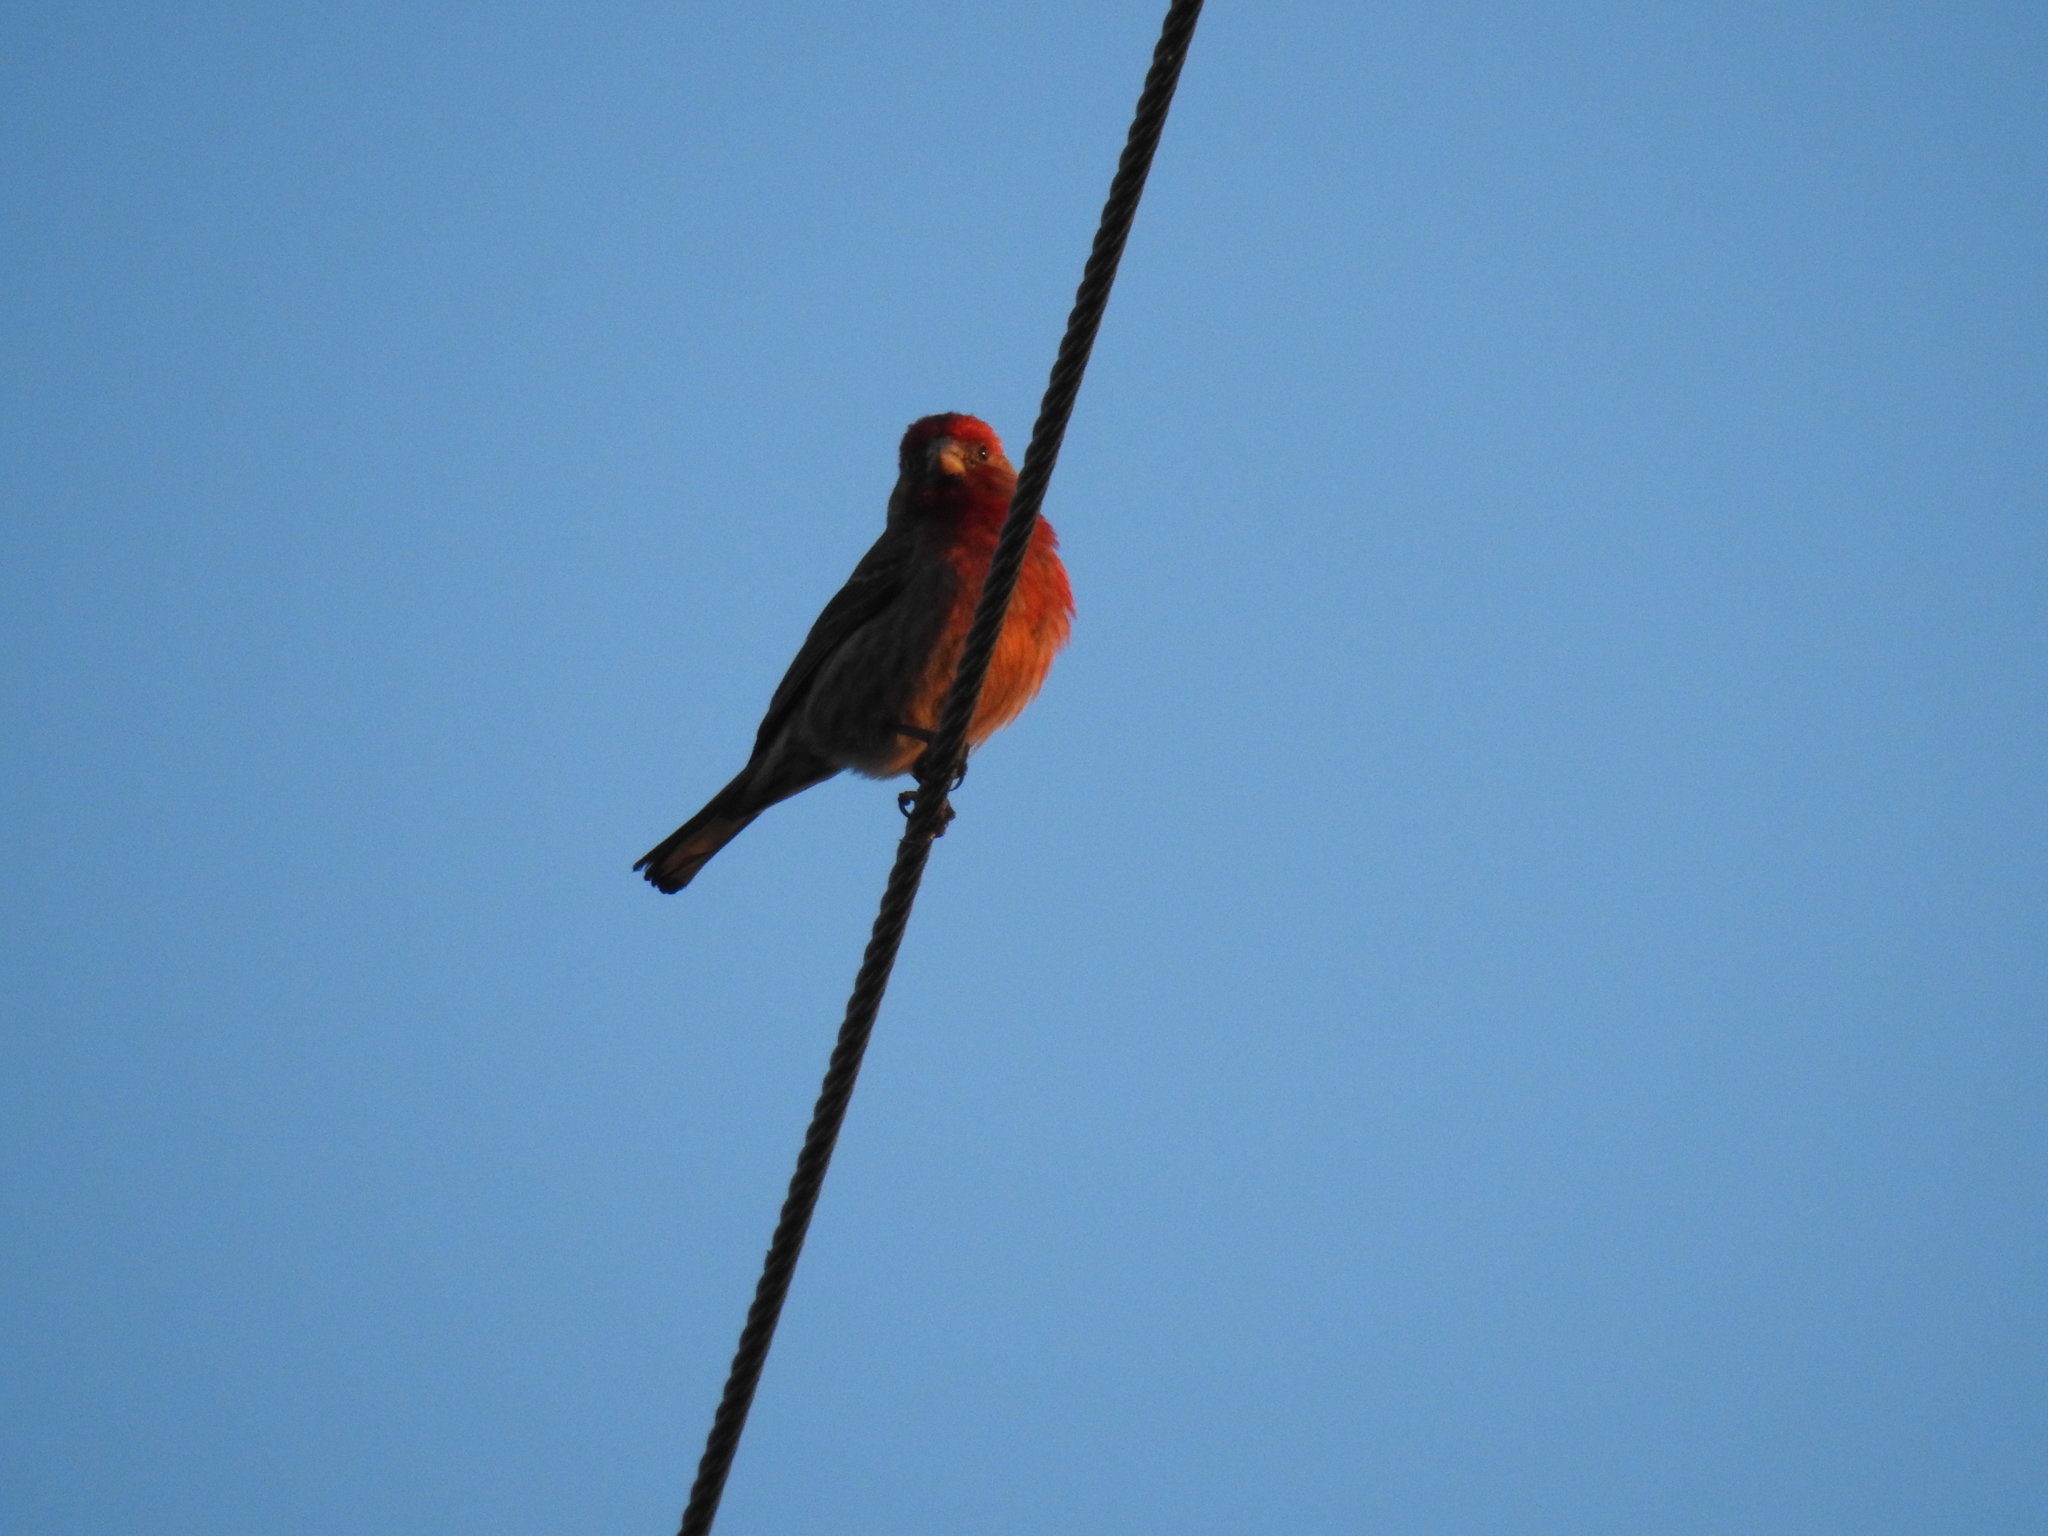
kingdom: Animalia
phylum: Chordata
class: Aves
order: Passeriformes
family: Fringillidae
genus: Haemorhous
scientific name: Haemorhous mexicanus
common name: House finch
